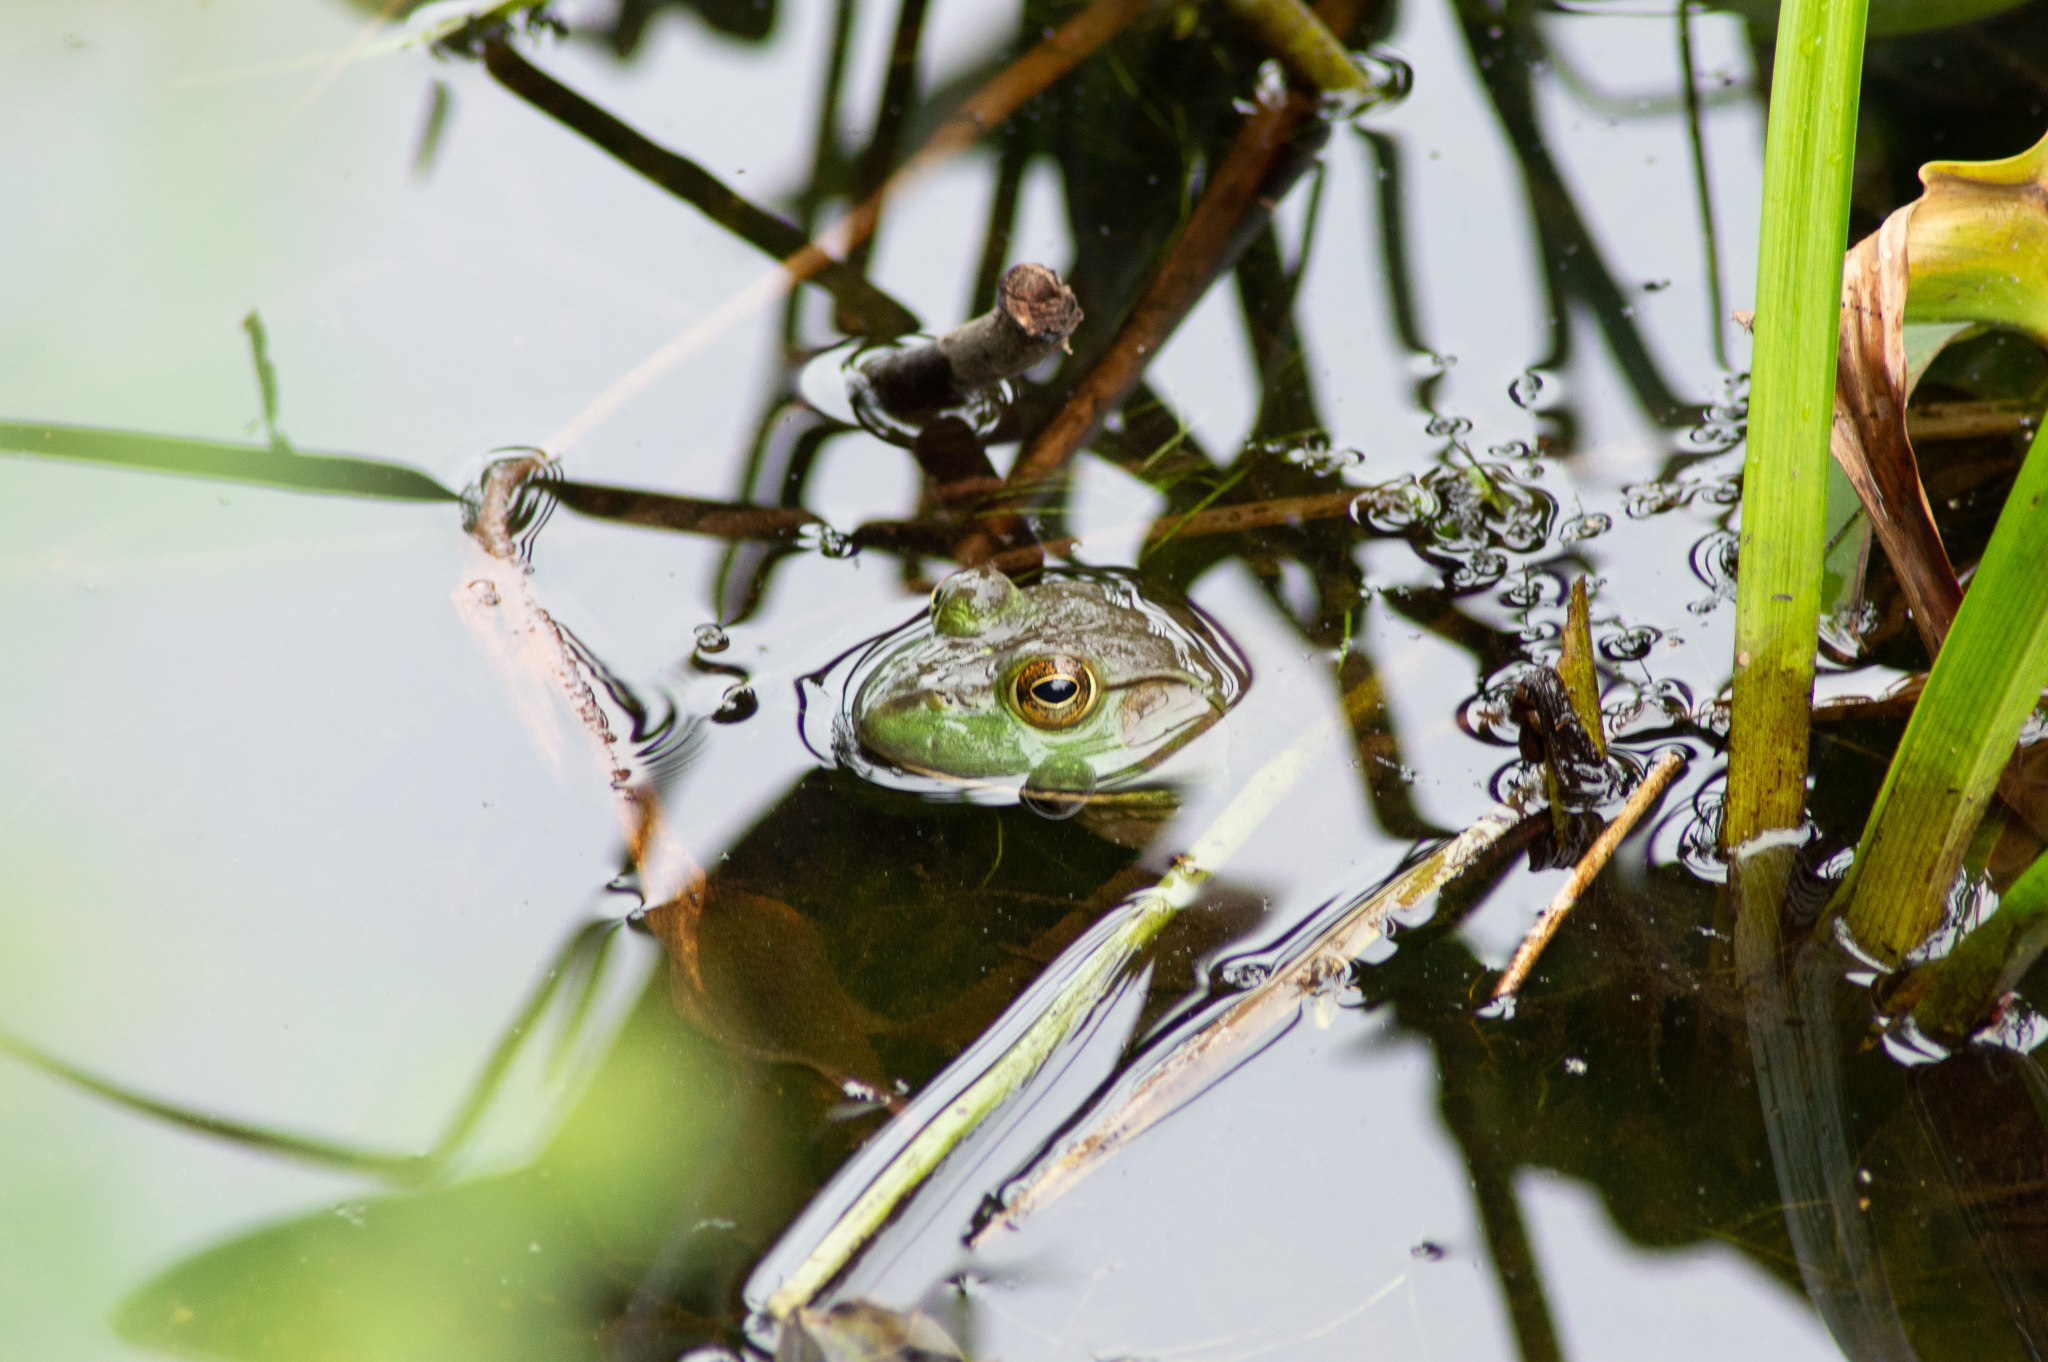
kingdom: Animalia
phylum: Chordata
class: Amphibia
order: Anura
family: Ranidae
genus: Lithobates
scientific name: Lithobates catesbeianus
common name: American bullfrog
